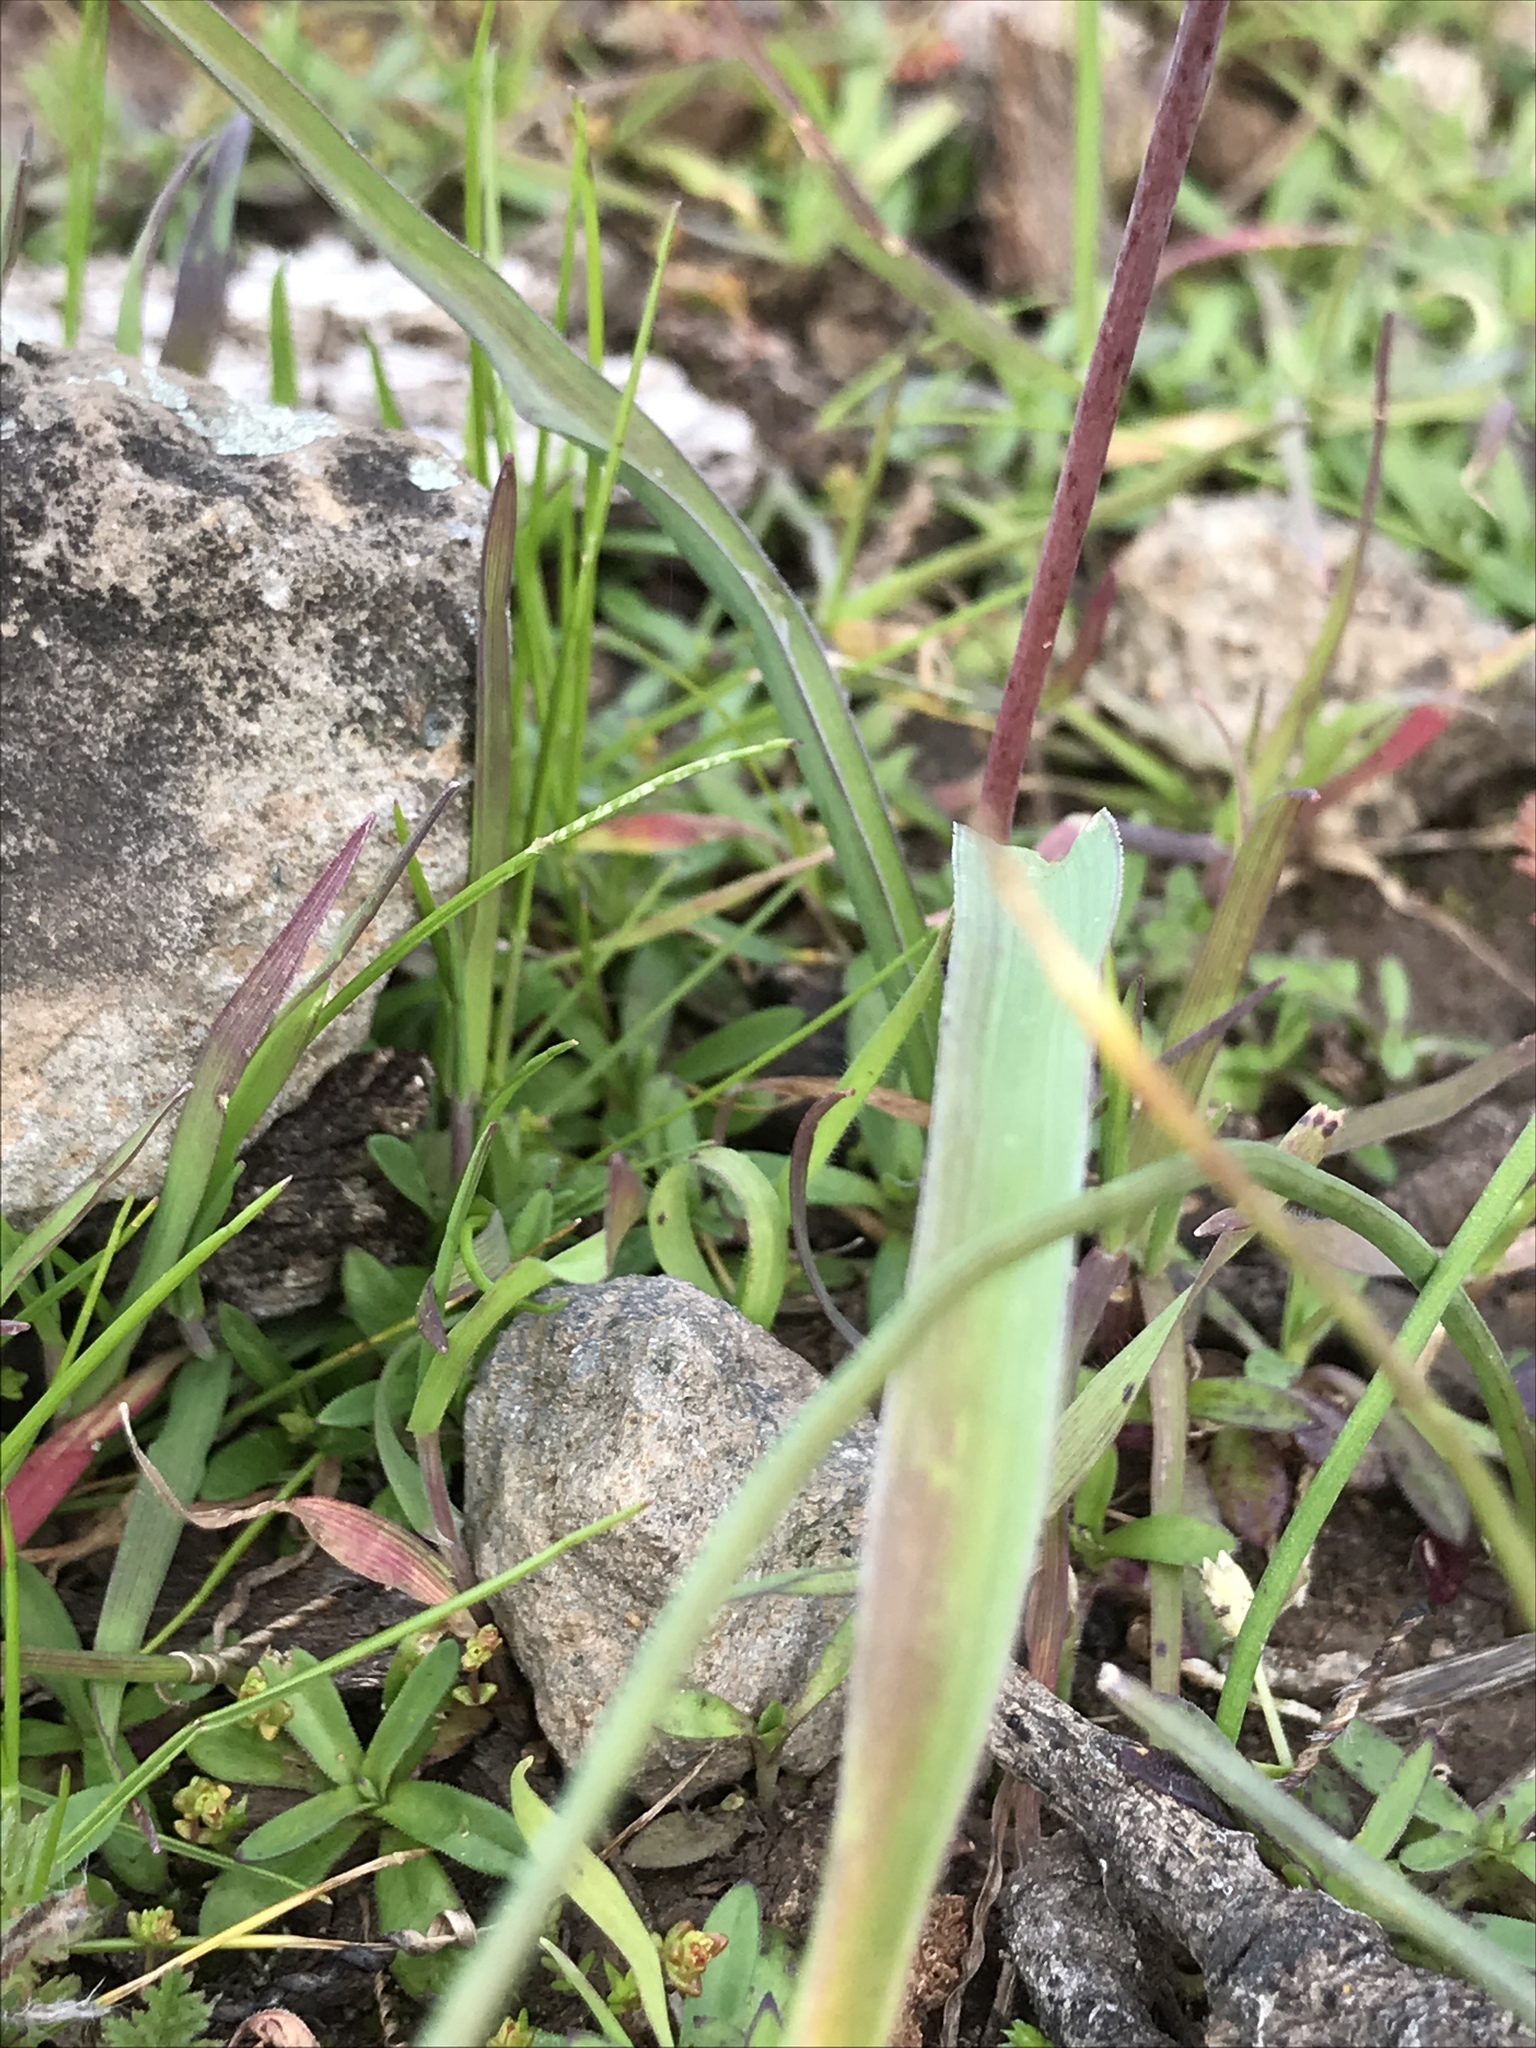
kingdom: Plantae
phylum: Tracheophyta
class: Liliopsida
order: Asparagales
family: Asparagaceae
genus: Dipterostemon
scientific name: Dipterostemon capitatus
